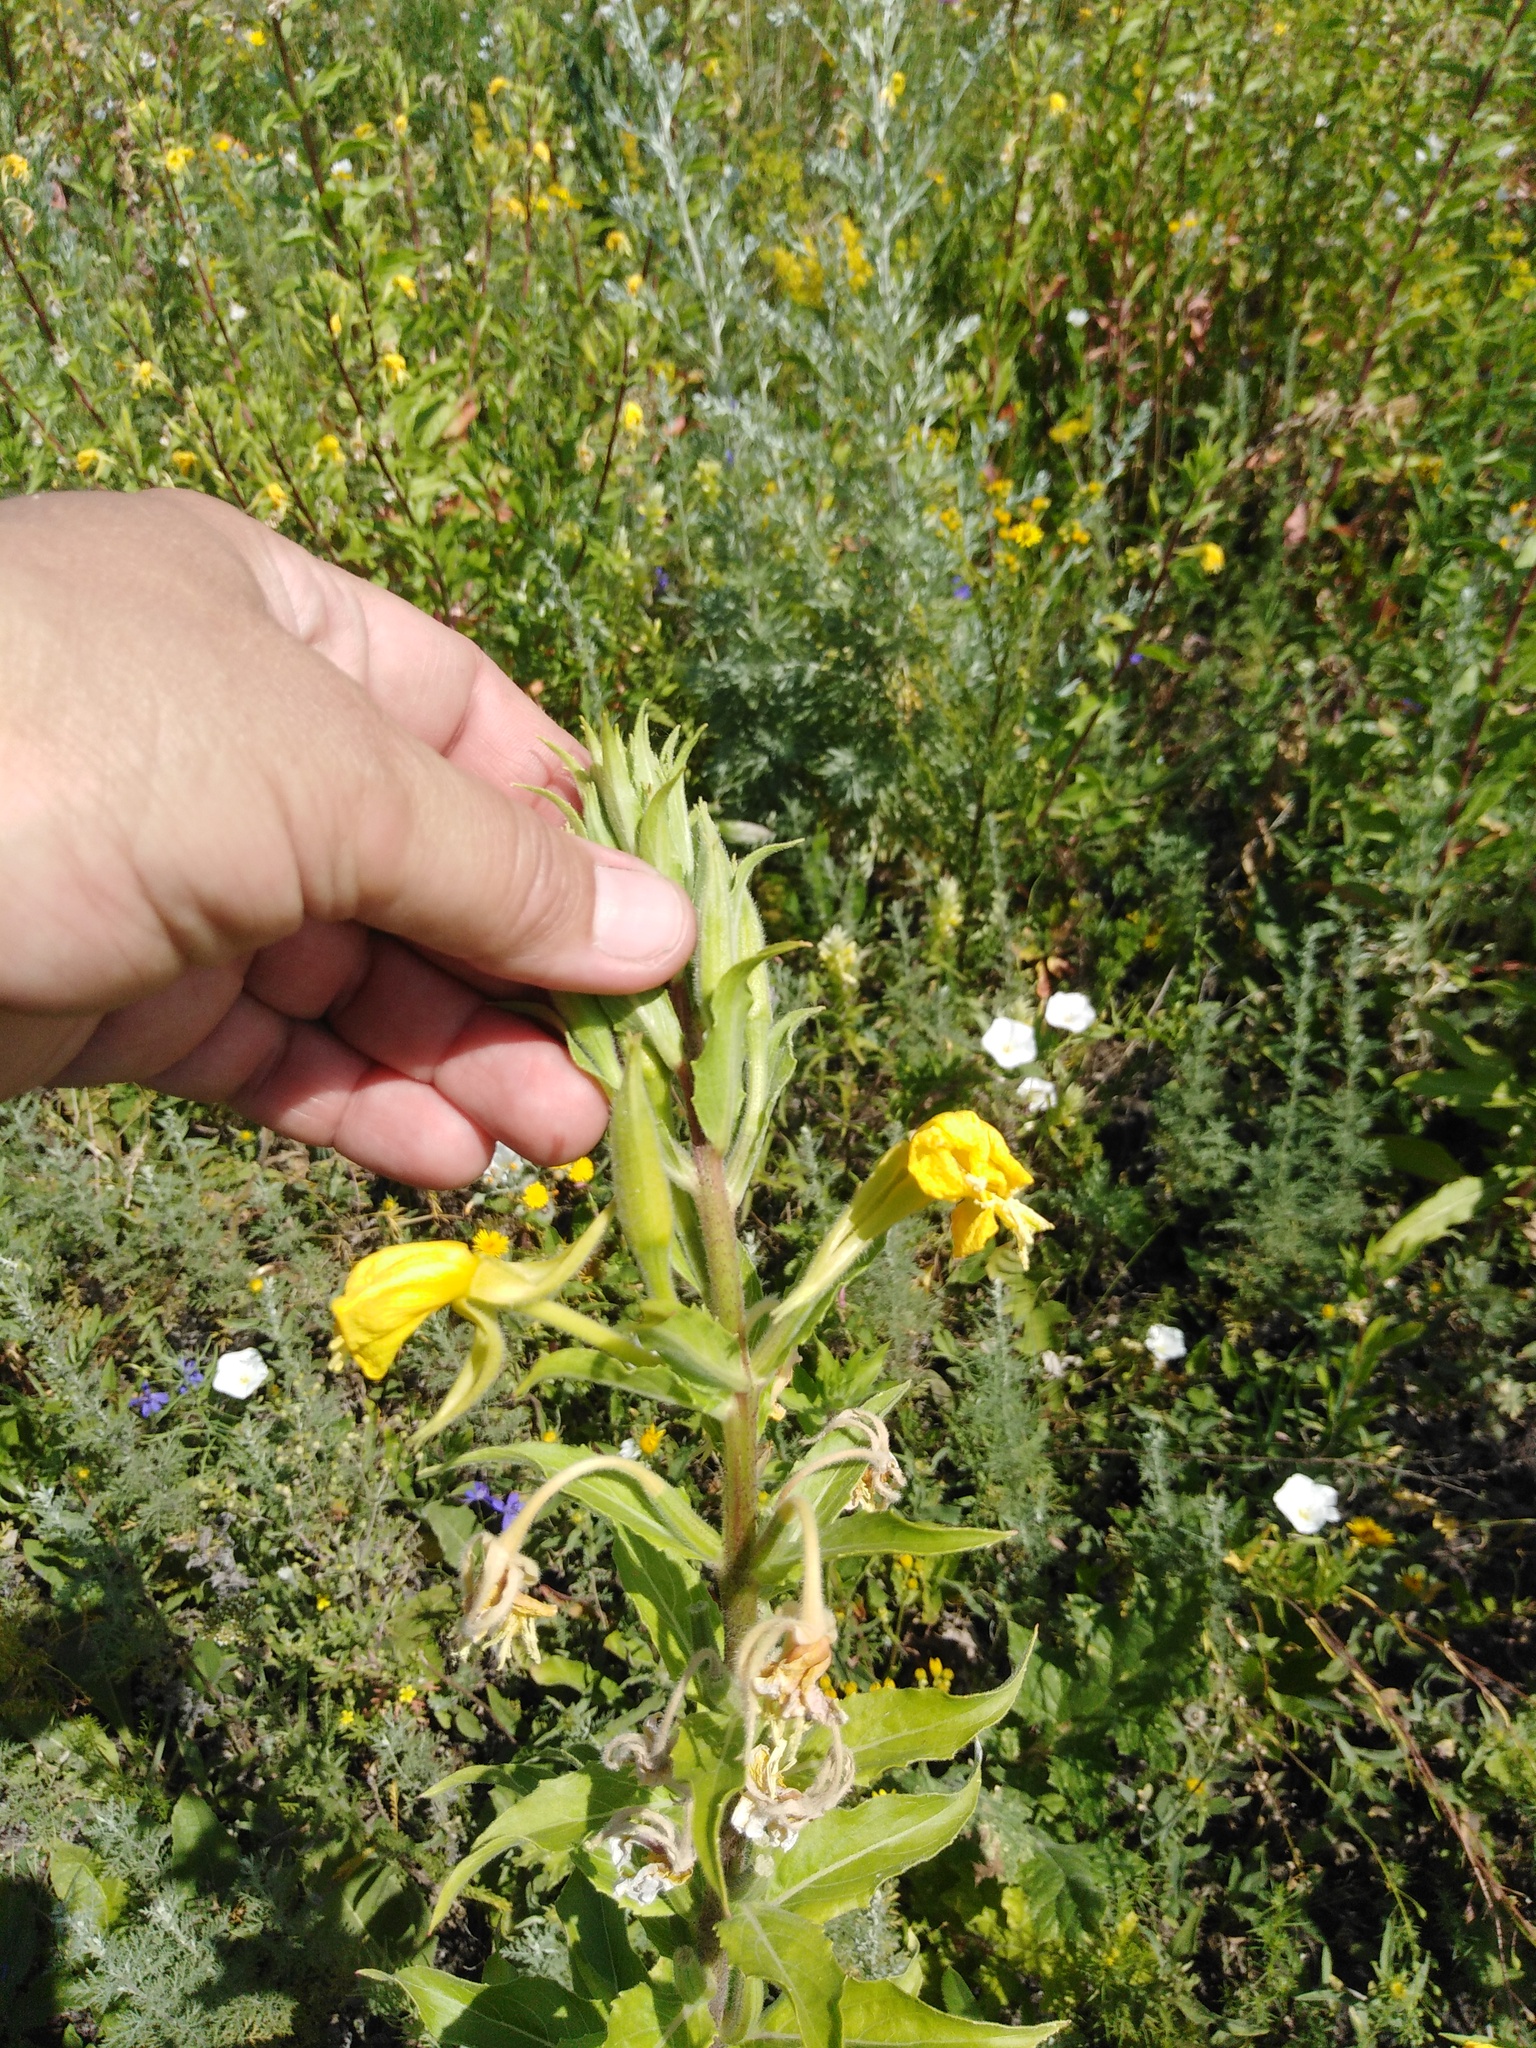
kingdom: Plantae
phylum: Tracheophyta
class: Magnoliopsida
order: Myrtales
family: Onagraceae
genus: Oenothera
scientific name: Oenothera rubricaulis
